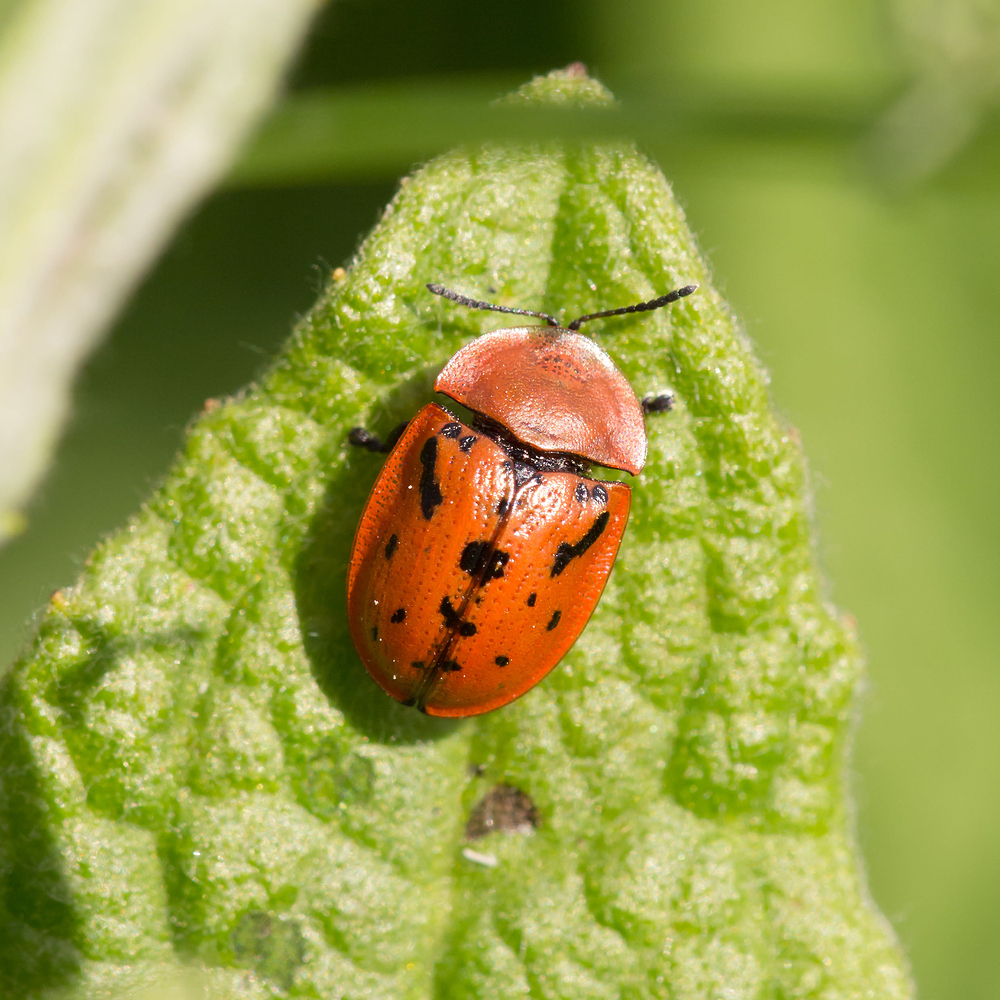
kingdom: Animalia
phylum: Arthropoda
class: Insecta
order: Coleoptera
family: Chrysomelidae
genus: Cassida
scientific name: Cassida murraea
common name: Fleabane tortoise beetle
